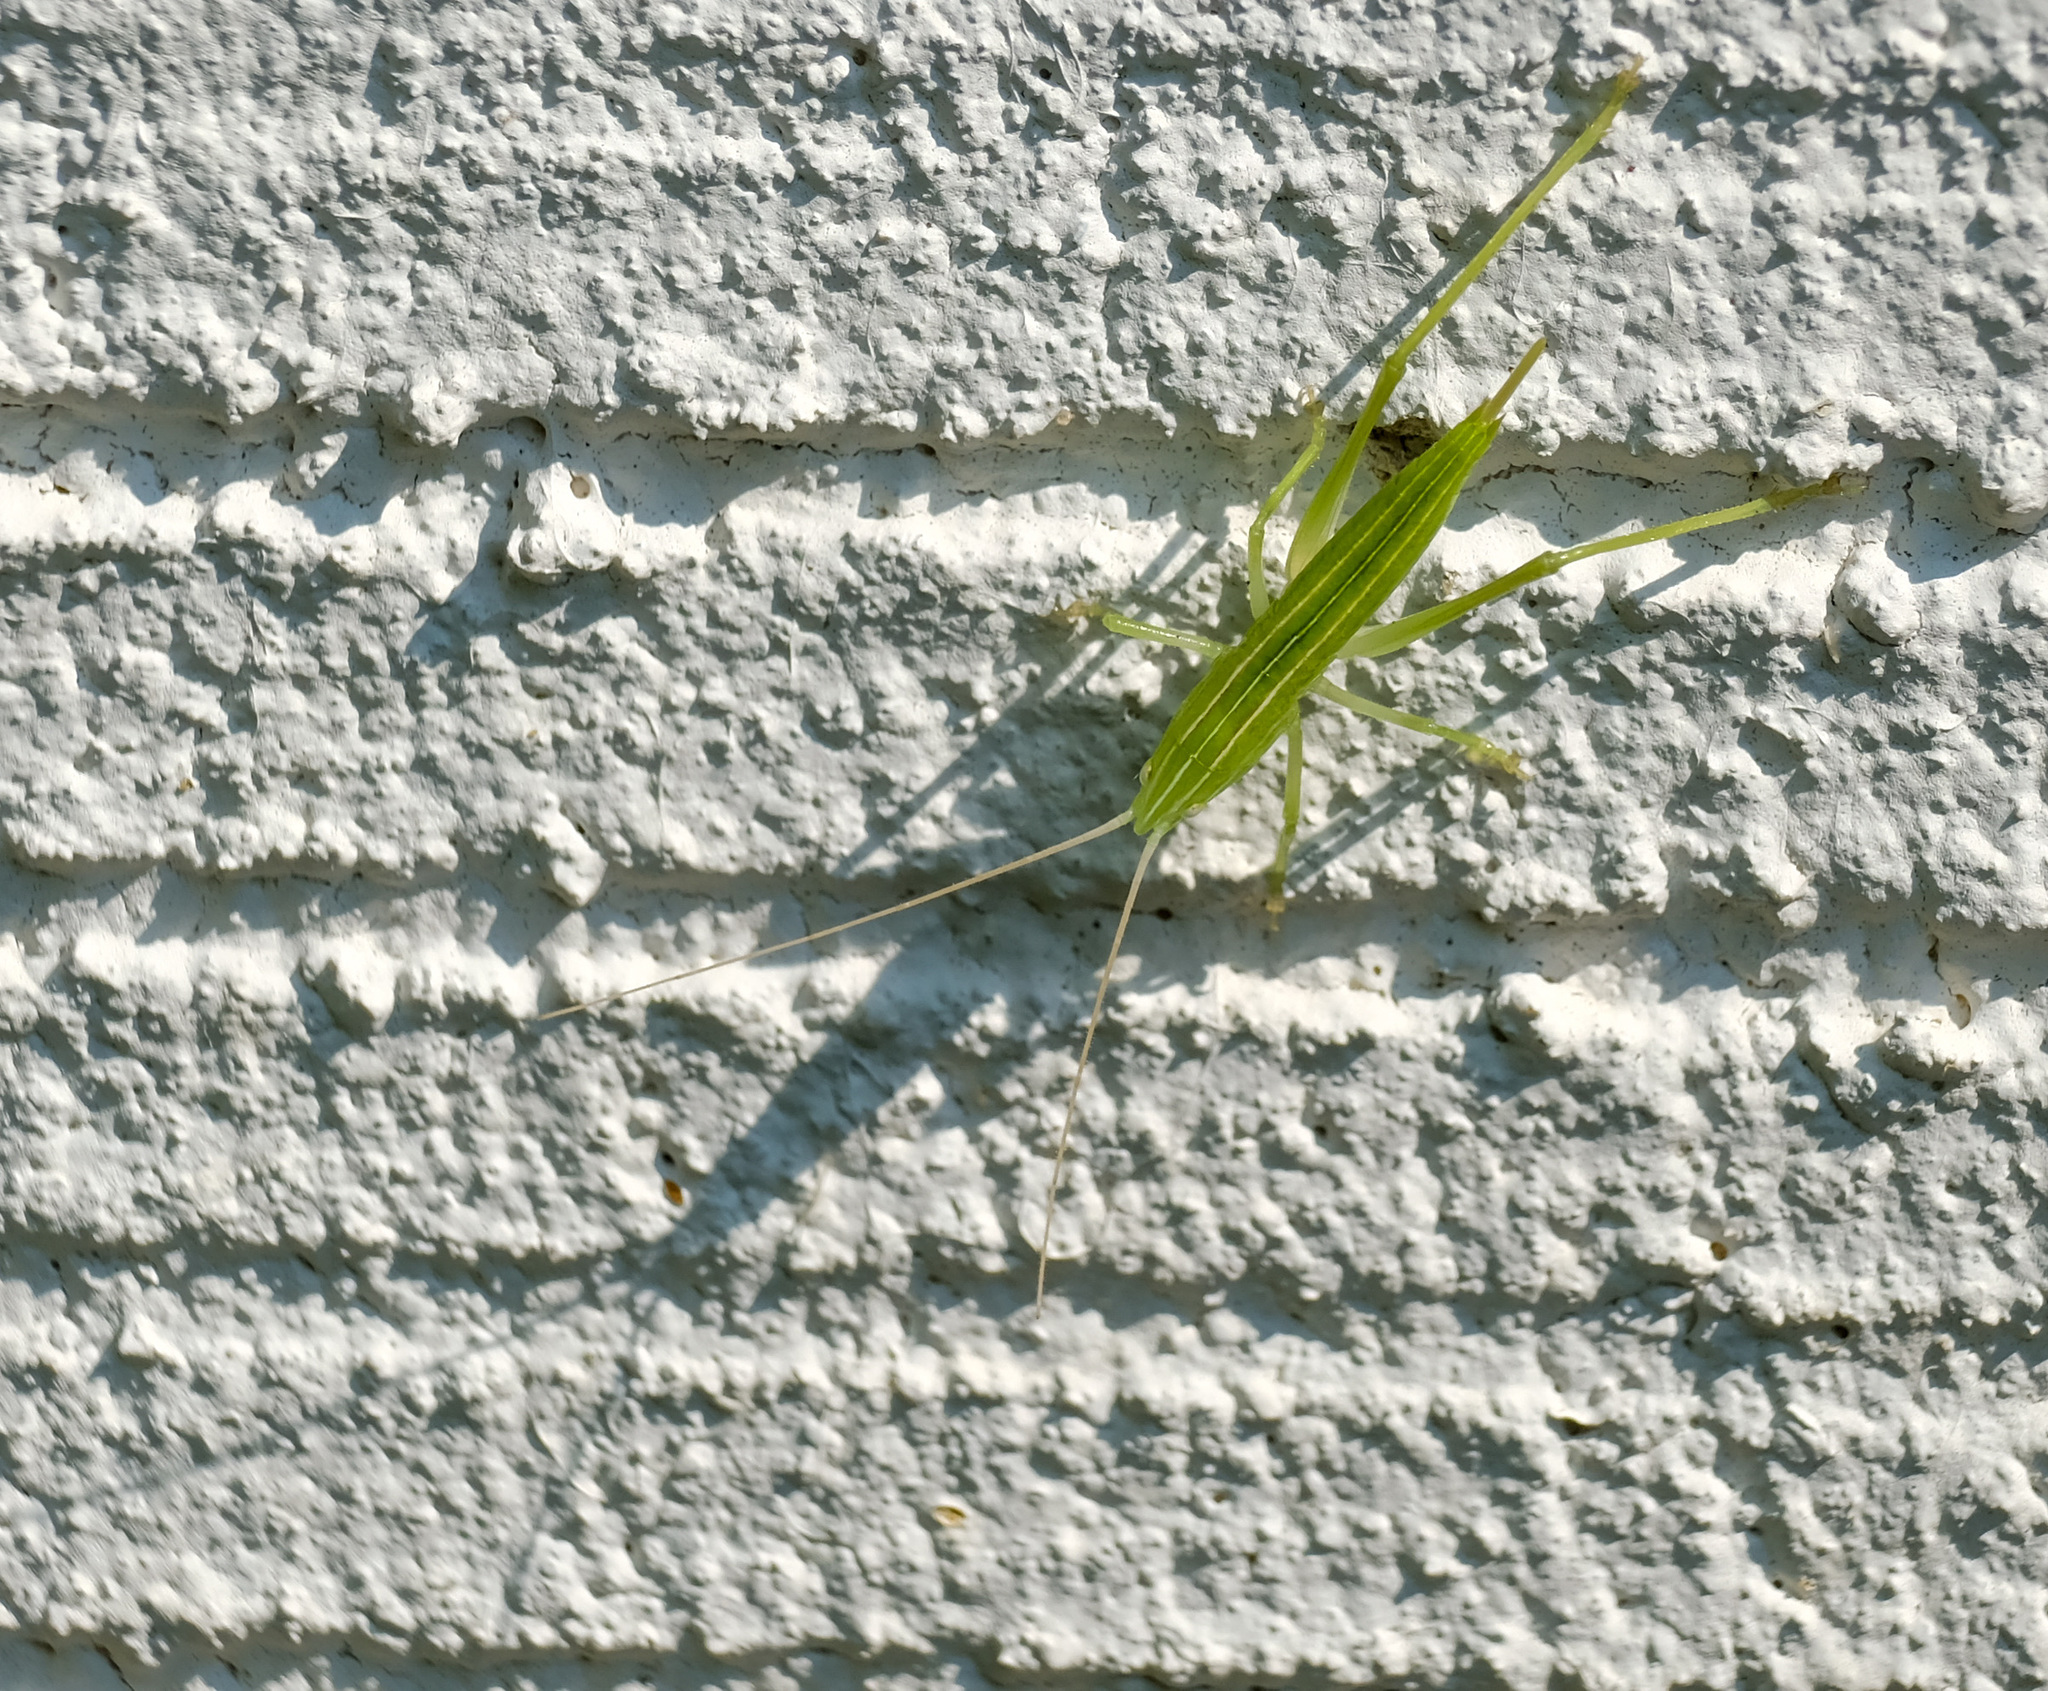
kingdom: Animalia
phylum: Arthropoda
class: Insecta
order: Orthoptera
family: Tettigoniidae
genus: Neoconocephalus
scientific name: Neoconocephalus
